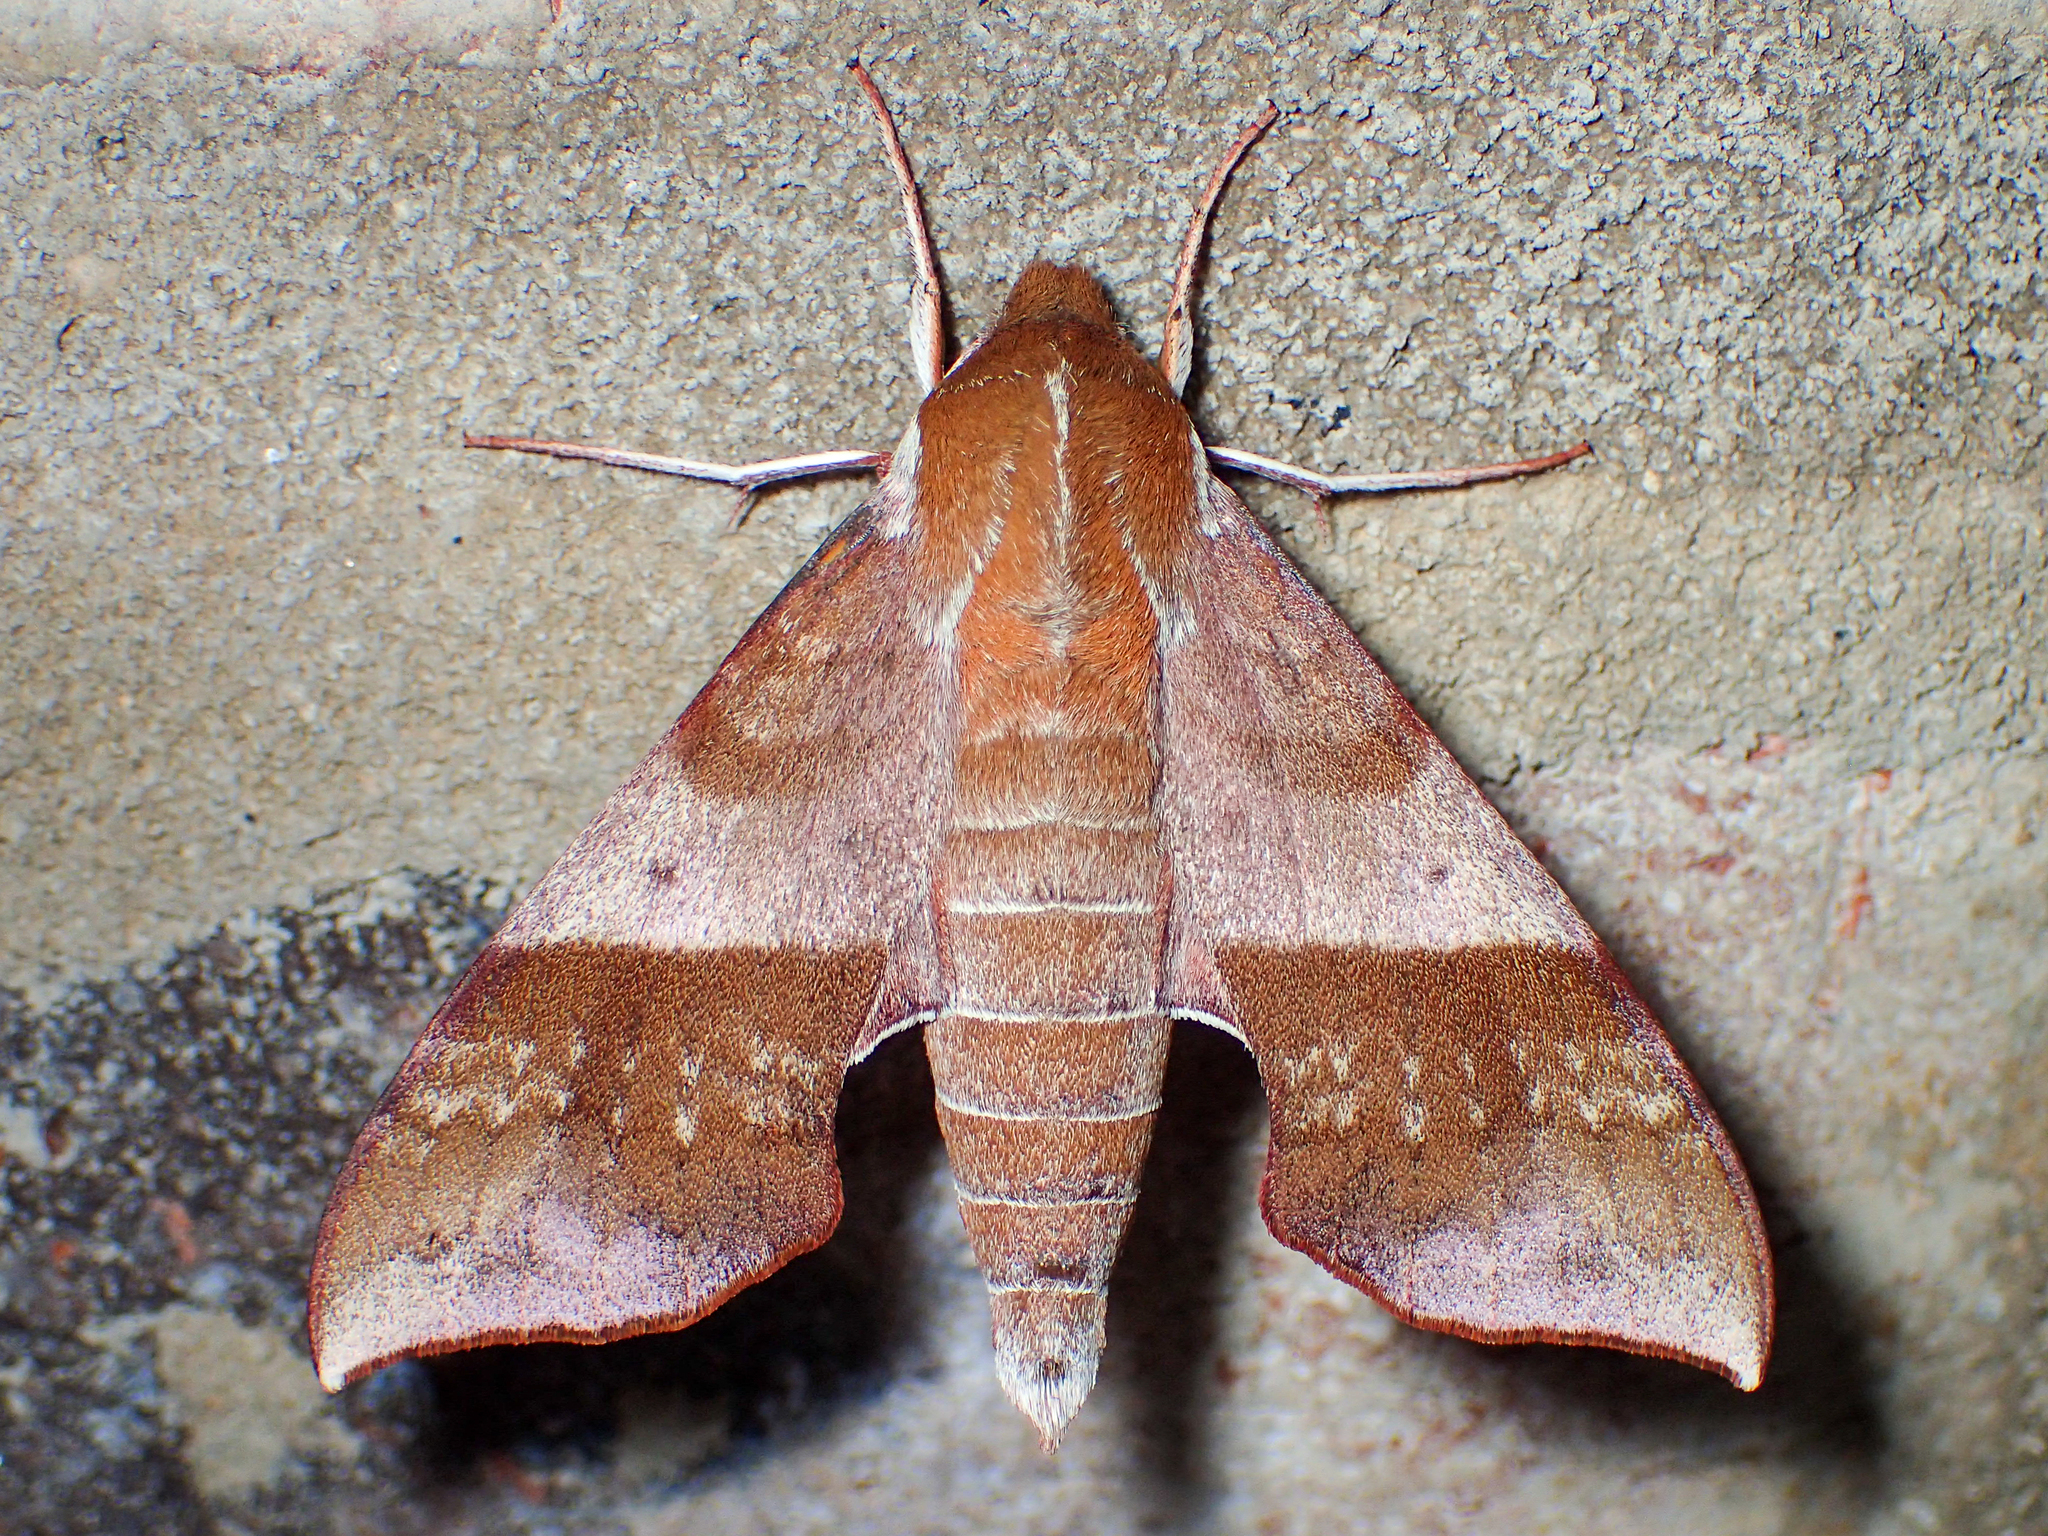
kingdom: Animalia
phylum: Arthropoda
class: Insecta
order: Lepidoptera
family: Sphingidae
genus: Darapsa
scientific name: Darapsa choerilus
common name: Azalea sphinx
